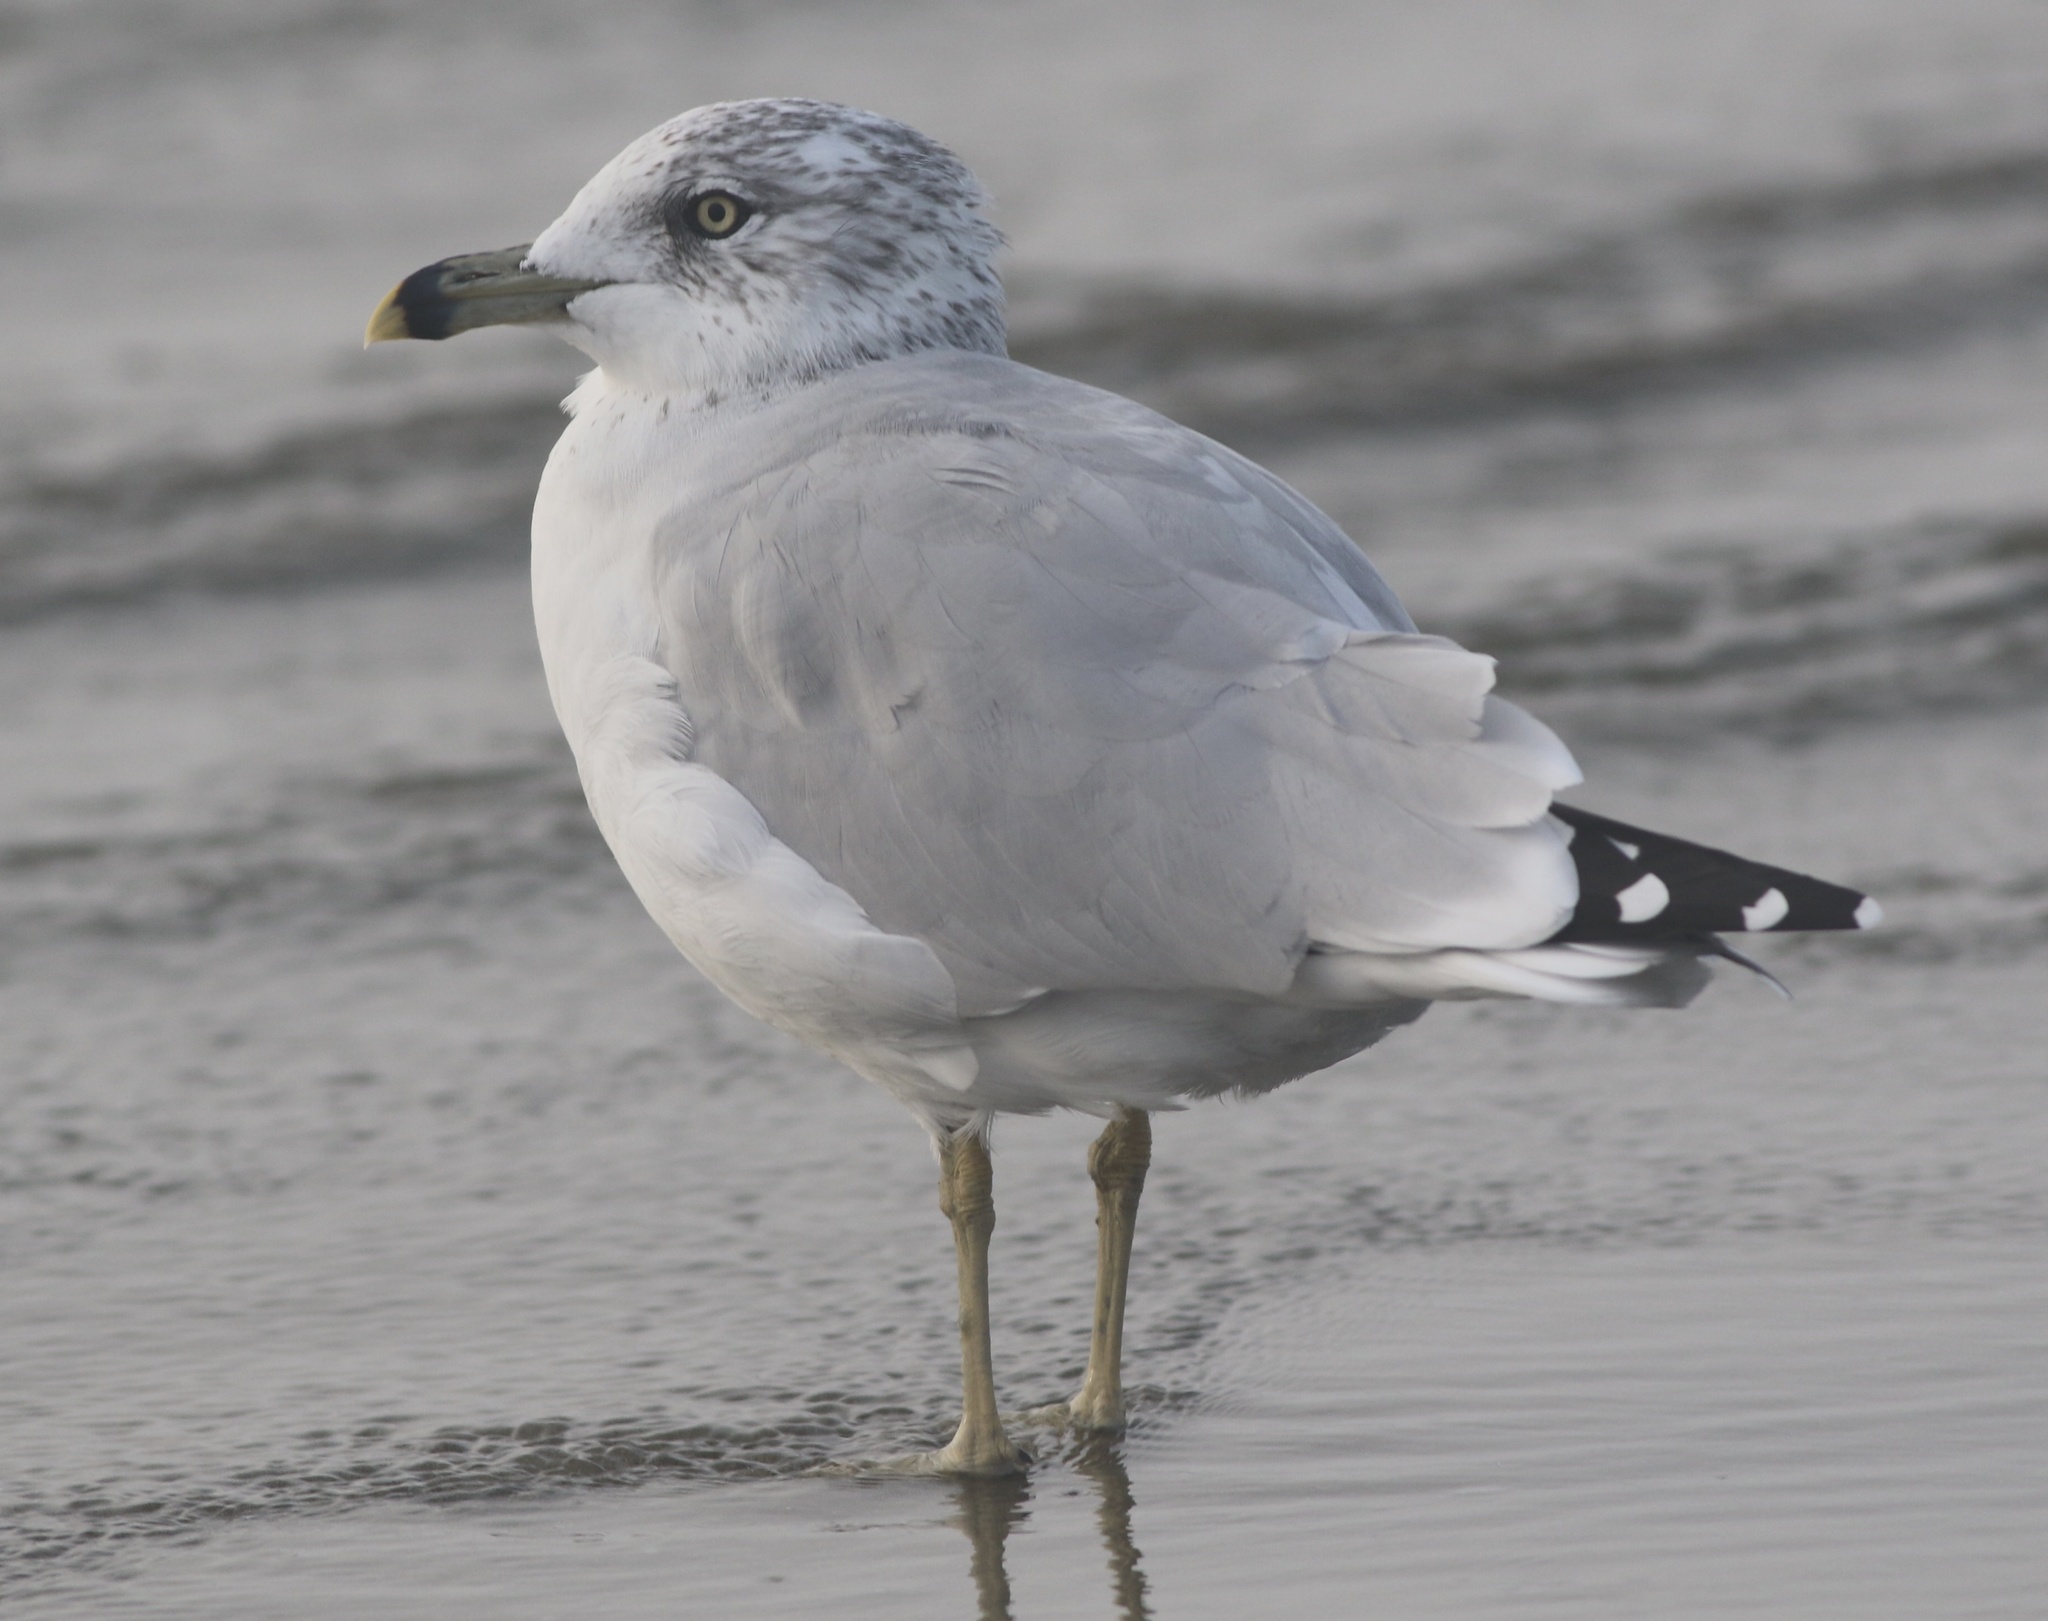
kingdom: Animalia
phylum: Chordata
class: Aves
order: Charadriiformes
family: Laridae
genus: Larus
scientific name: Larus delawarensis
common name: Ring-billed gull
